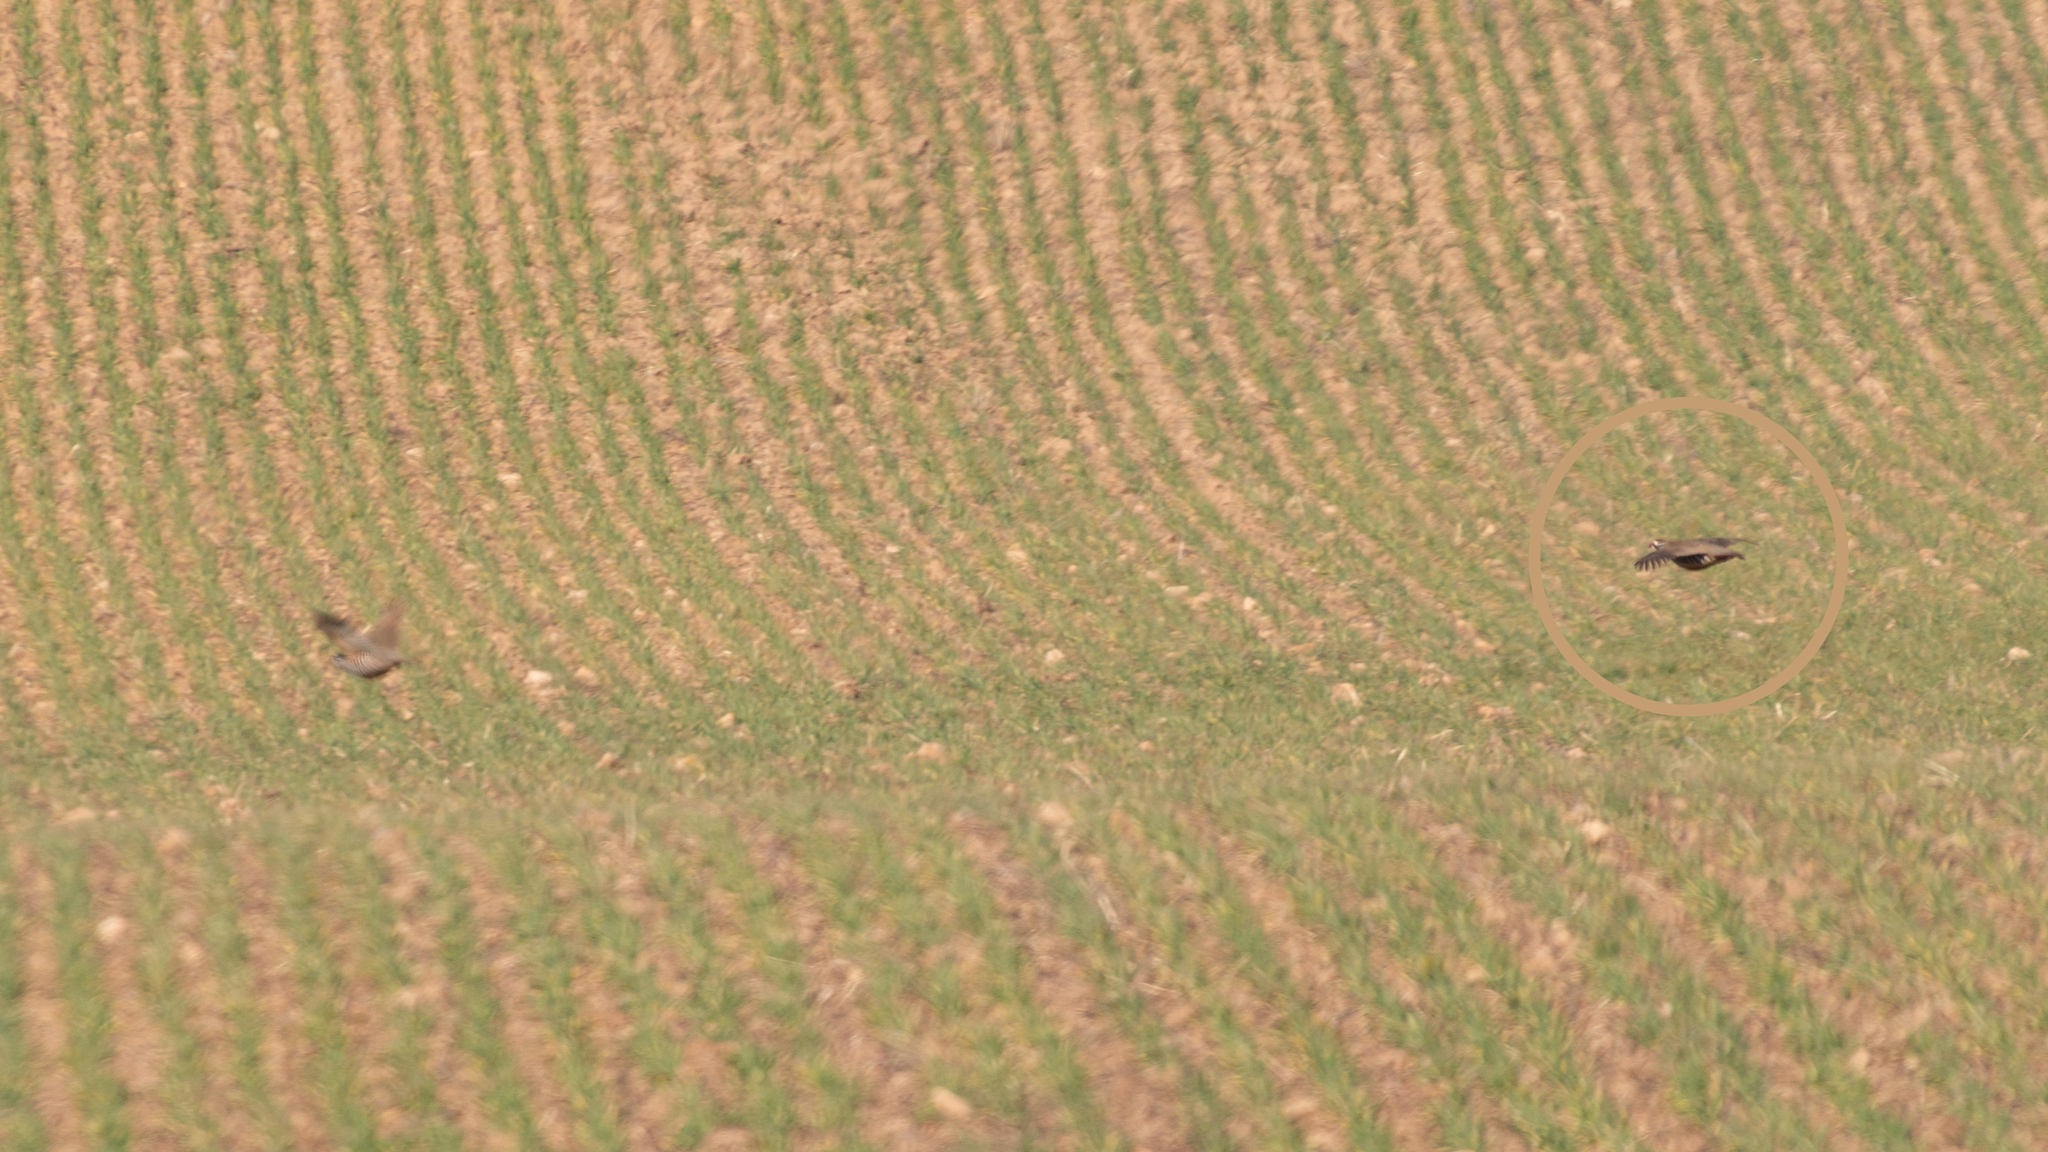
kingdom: Animalia
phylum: Chordata
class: Aves
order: Galliformes
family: Phasianidae
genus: Alectoris
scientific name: Alectoris rufa
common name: Red-legged partridge
